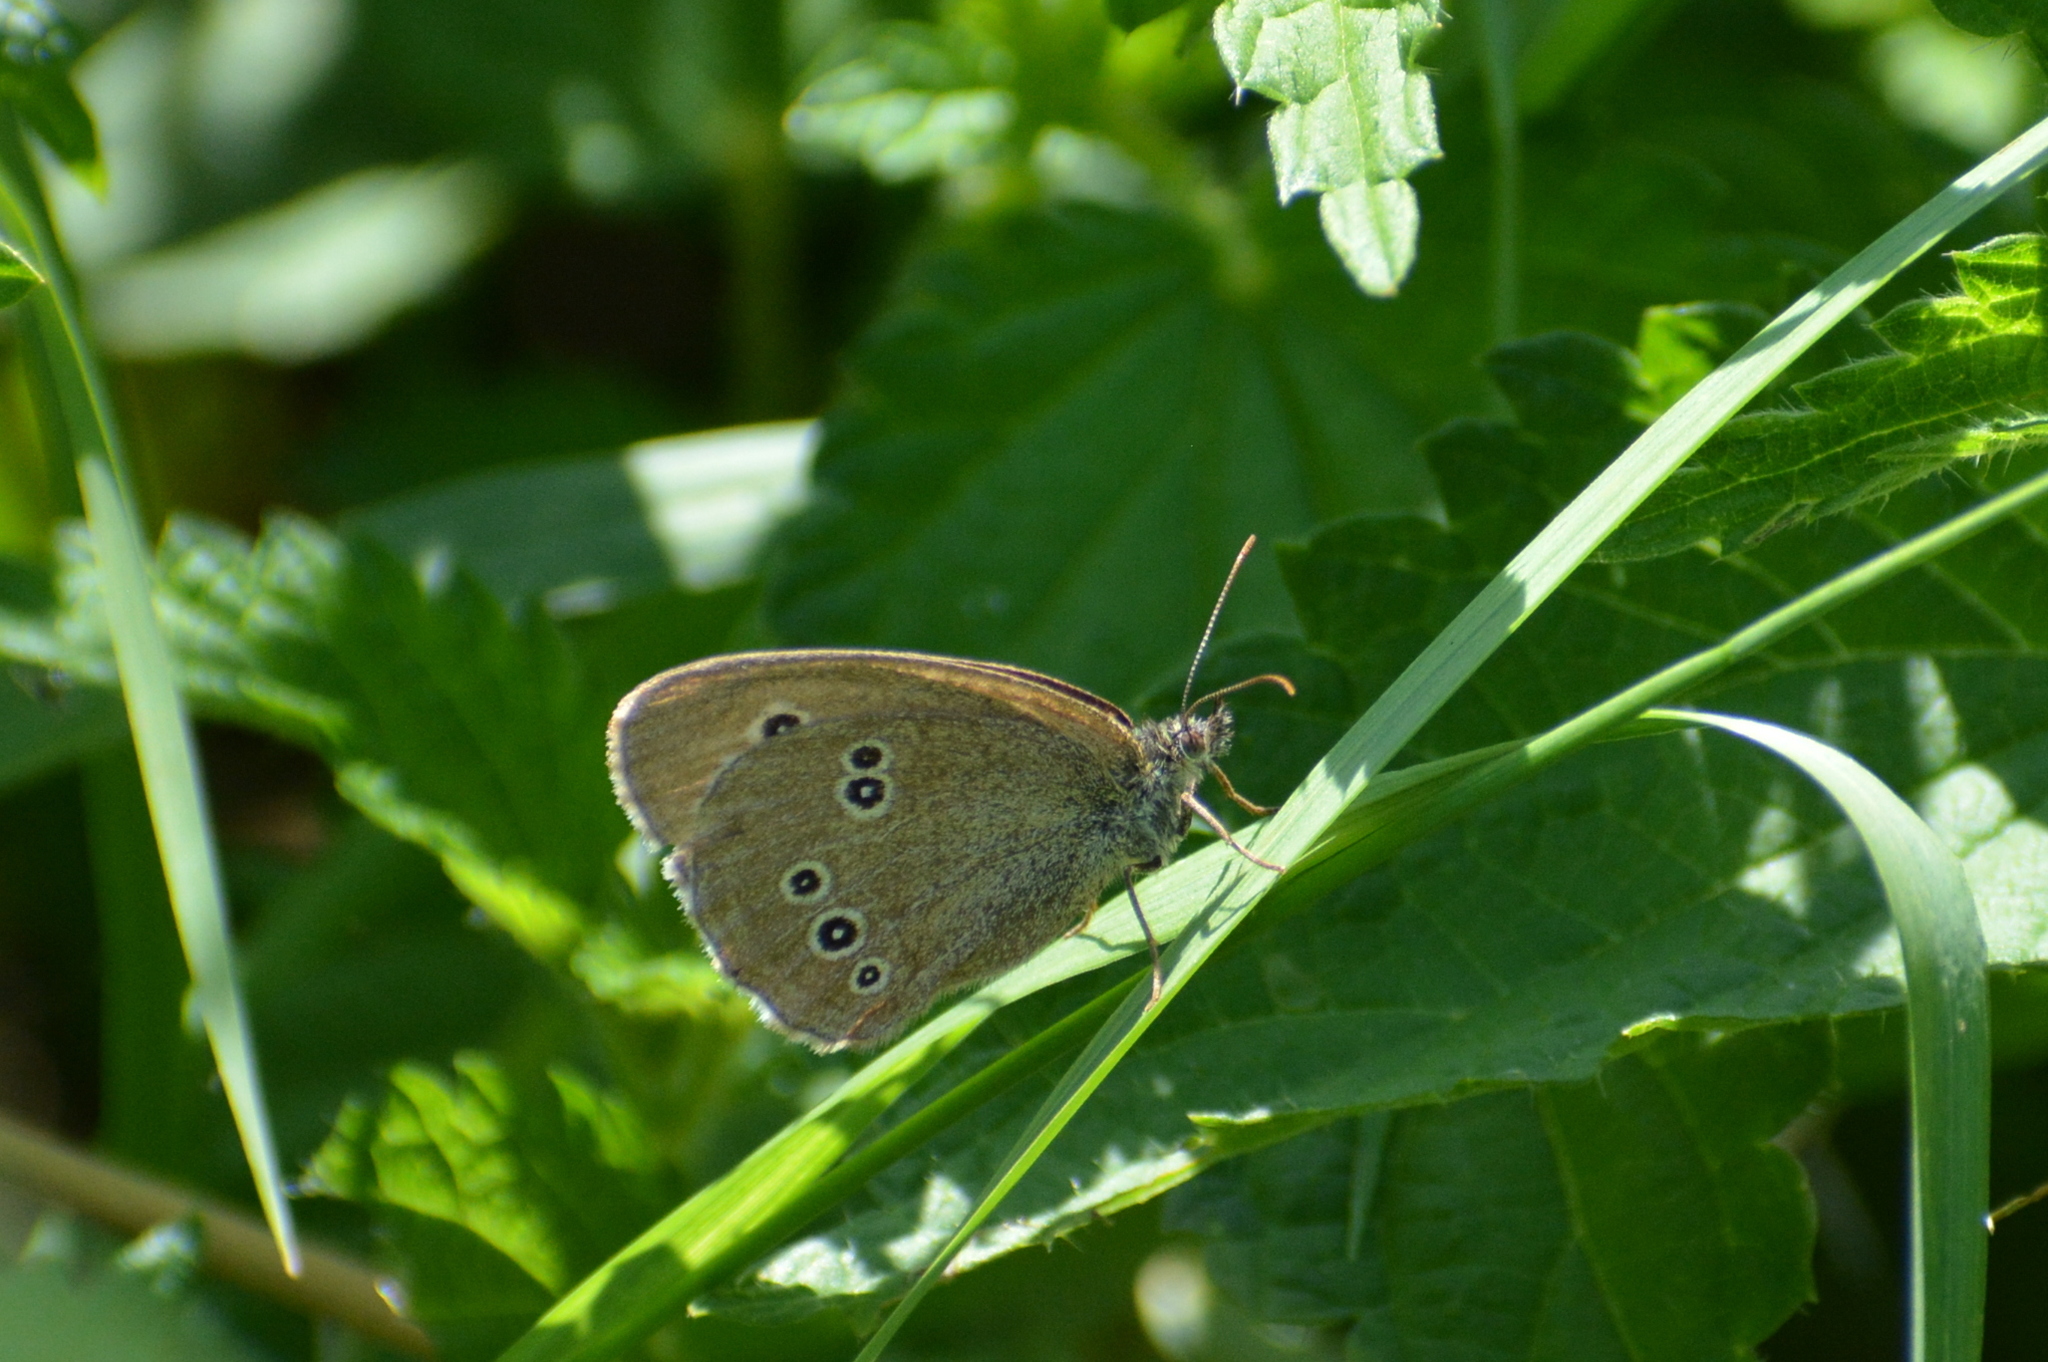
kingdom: Animalia
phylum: Arthropoda
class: Insecta
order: Lepidoptera
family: Nymphalidae
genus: Aphantopus
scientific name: Aphantopus hyperantus
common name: Ringlet
